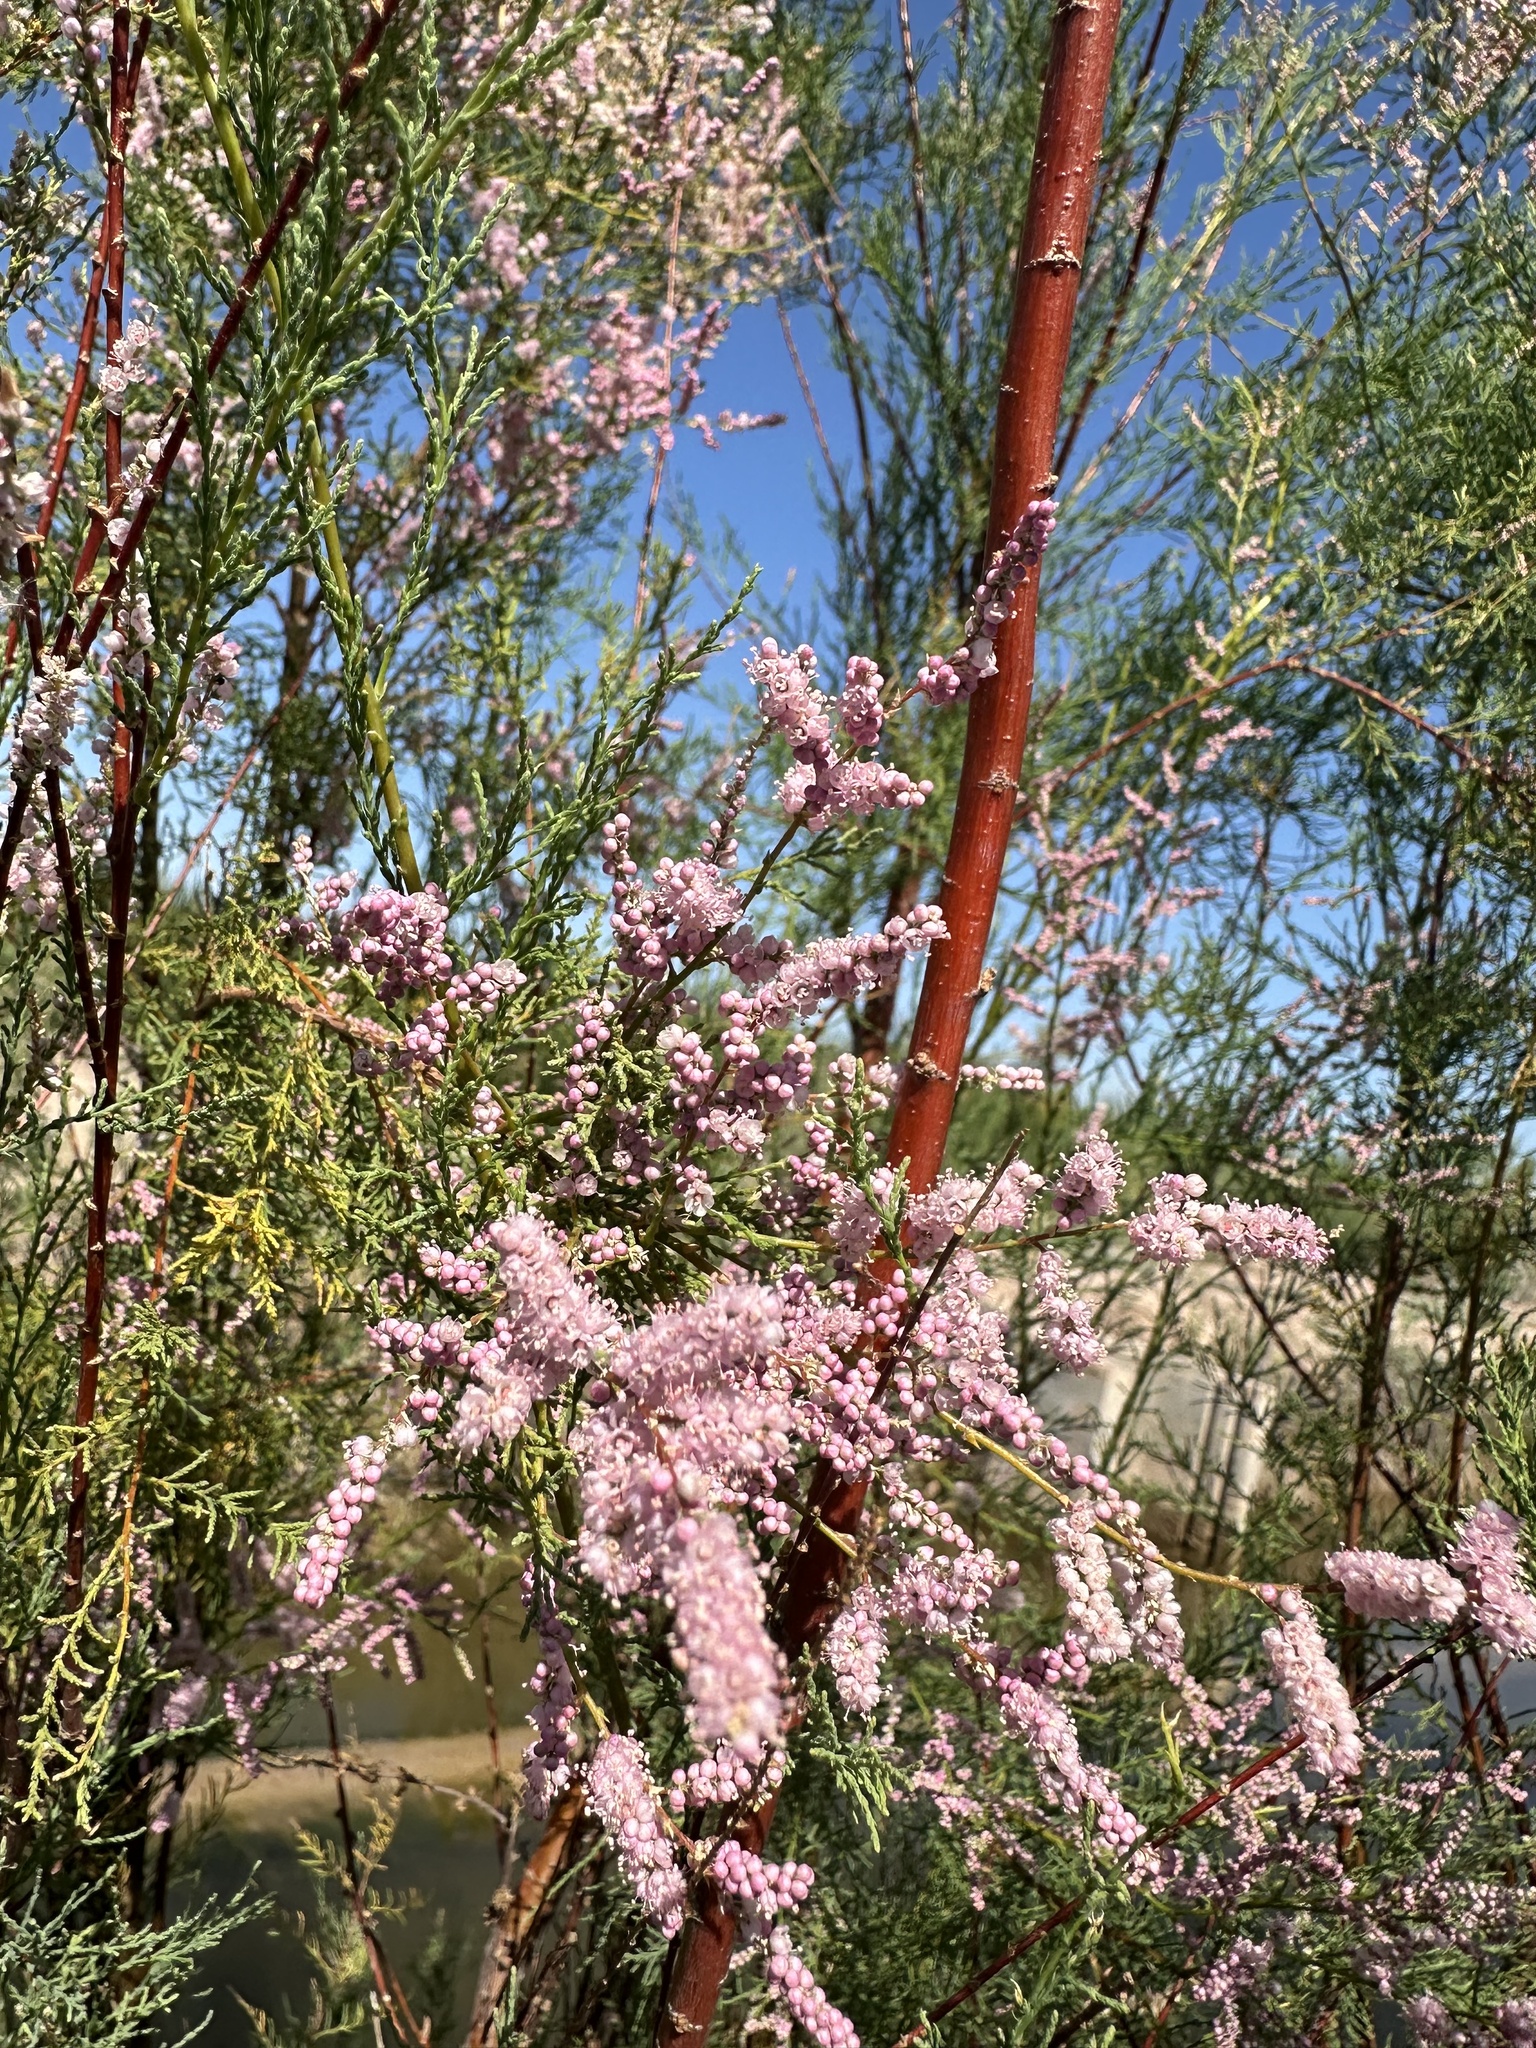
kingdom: Plantae
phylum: Tracheophyta
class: Magnoliopsida
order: Caryophyllales
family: Tamaricaceae
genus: Tamarix
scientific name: Tamarix
